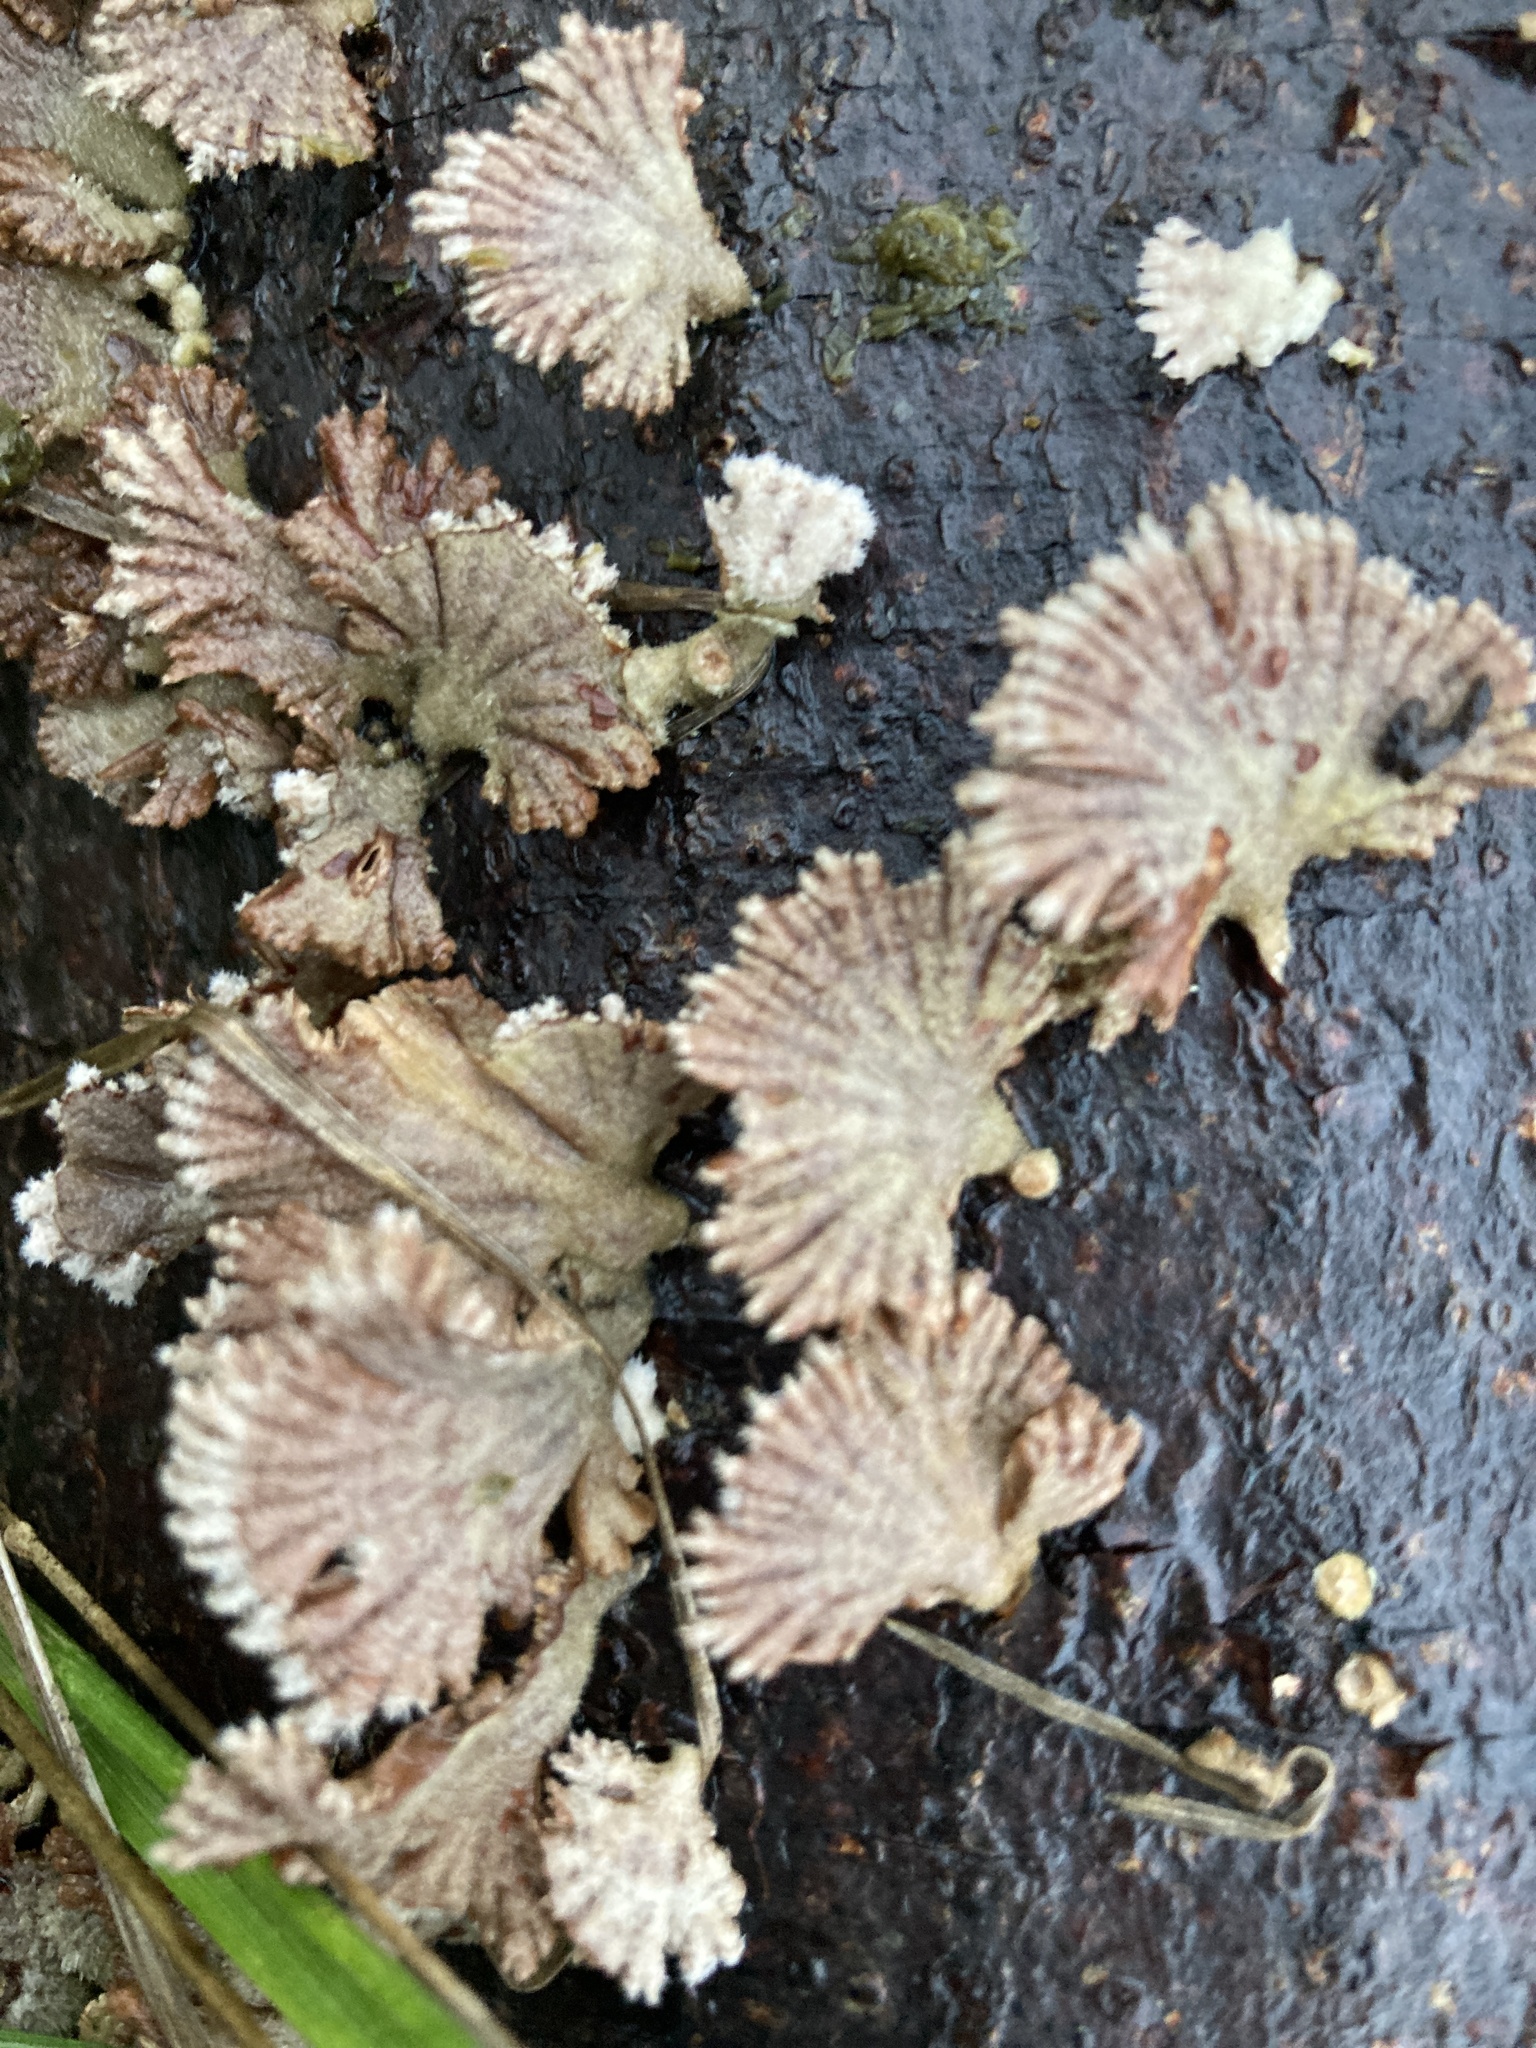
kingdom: Fungi
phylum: Basidiomycota
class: Agaricomycetes
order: Agaricales
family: Schizophyllaceae
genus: Schizophyllum
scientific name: Schizophyllum commune
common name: Common porecrust
